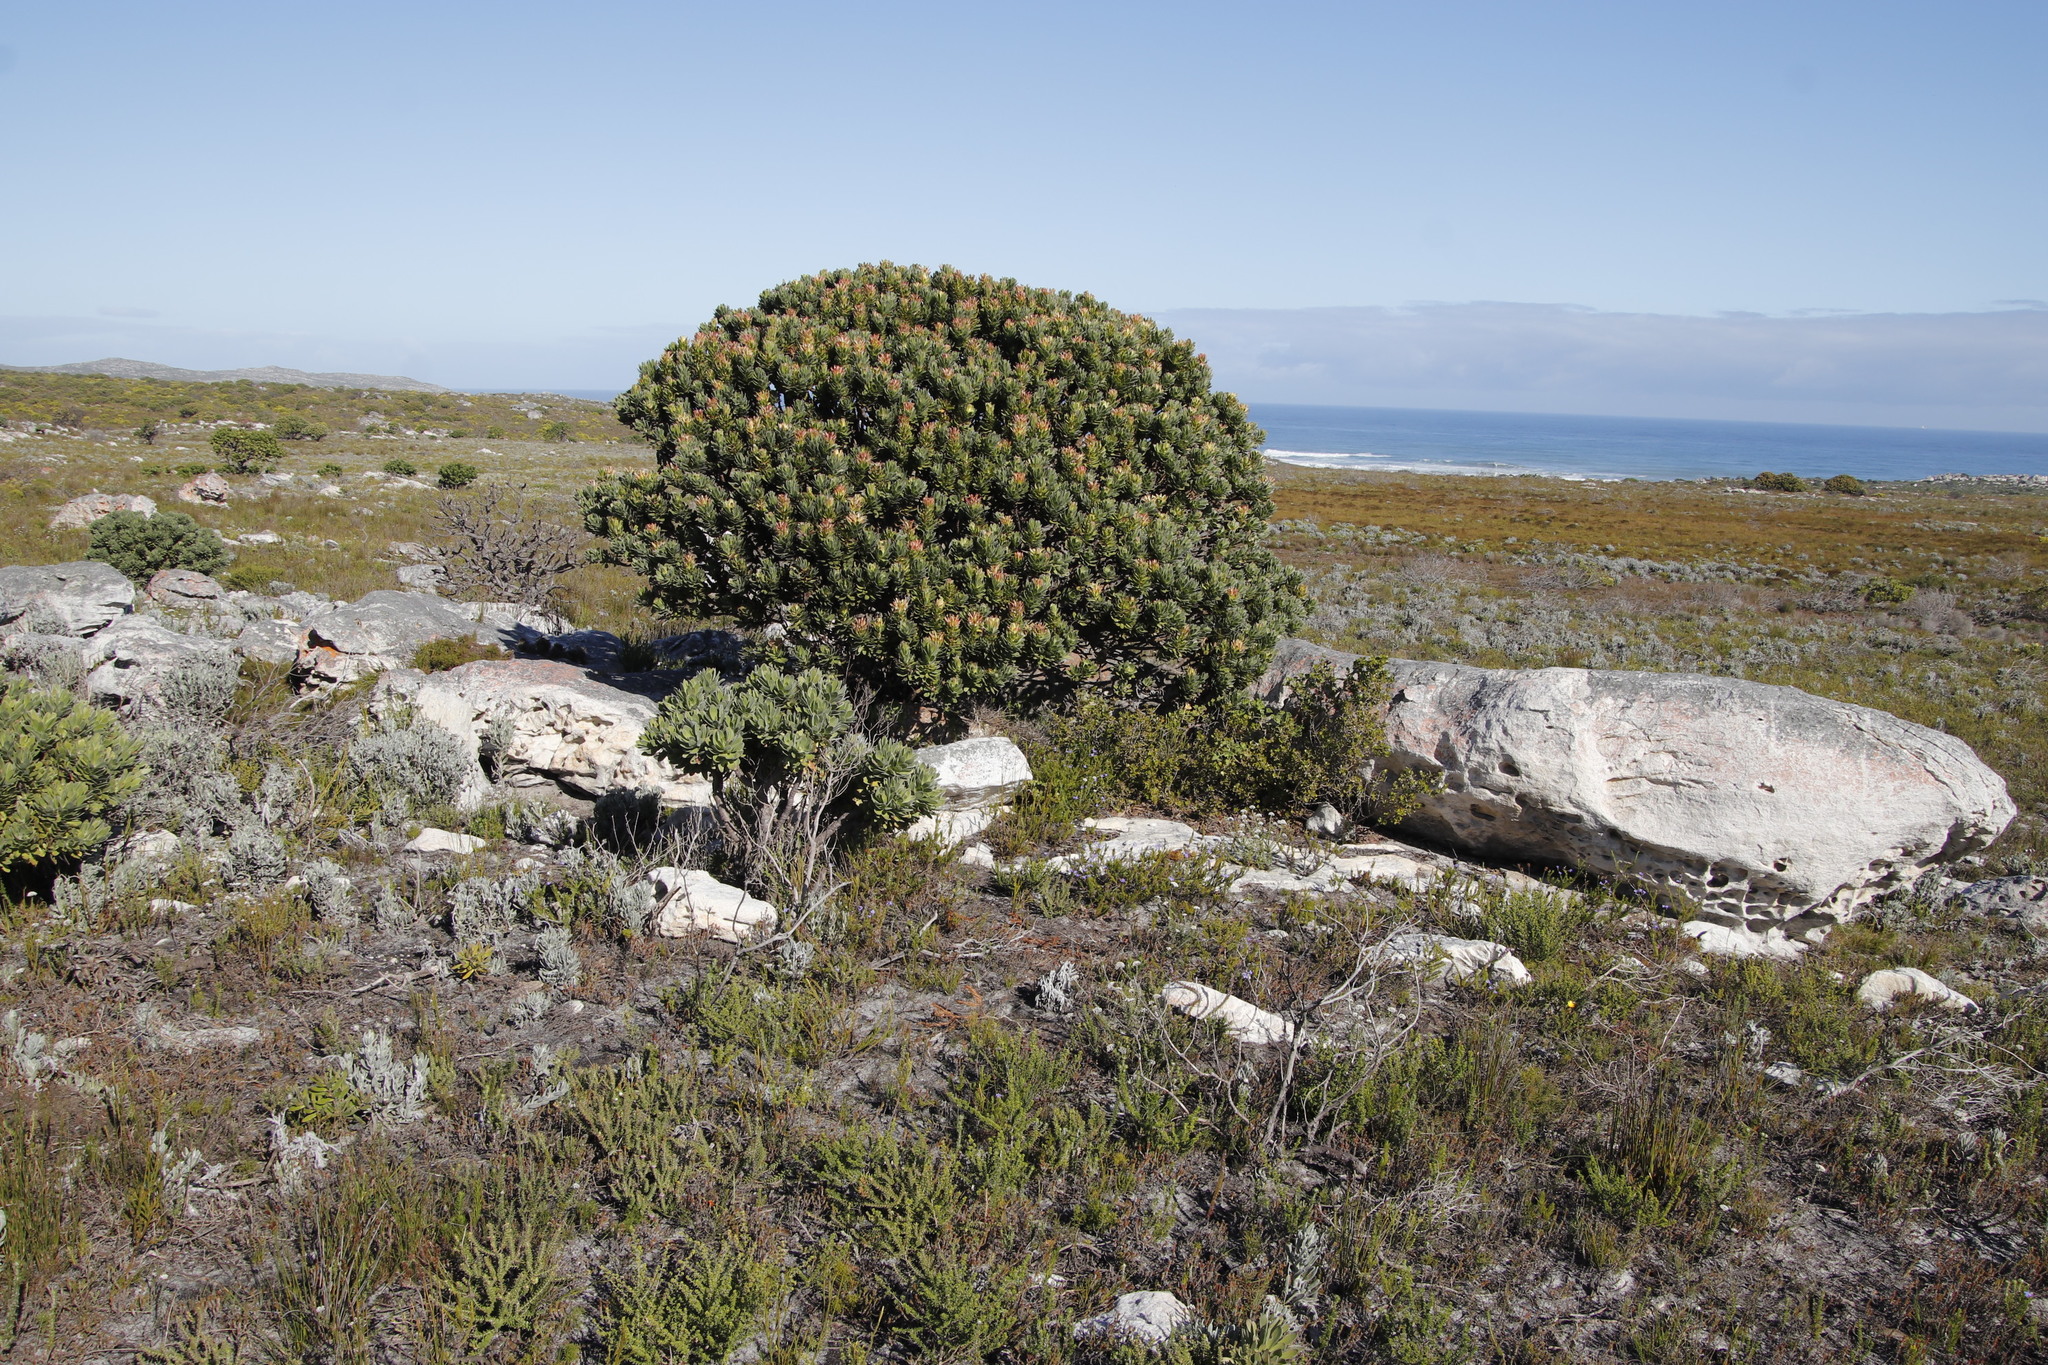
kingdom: Plantae
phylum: Tracheophyta
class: Magnoliopsida
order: Proteales
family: Proteaceae
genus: Mimetes
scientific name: Mimetes fimbriifolius
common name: Fringed bottlebrush
